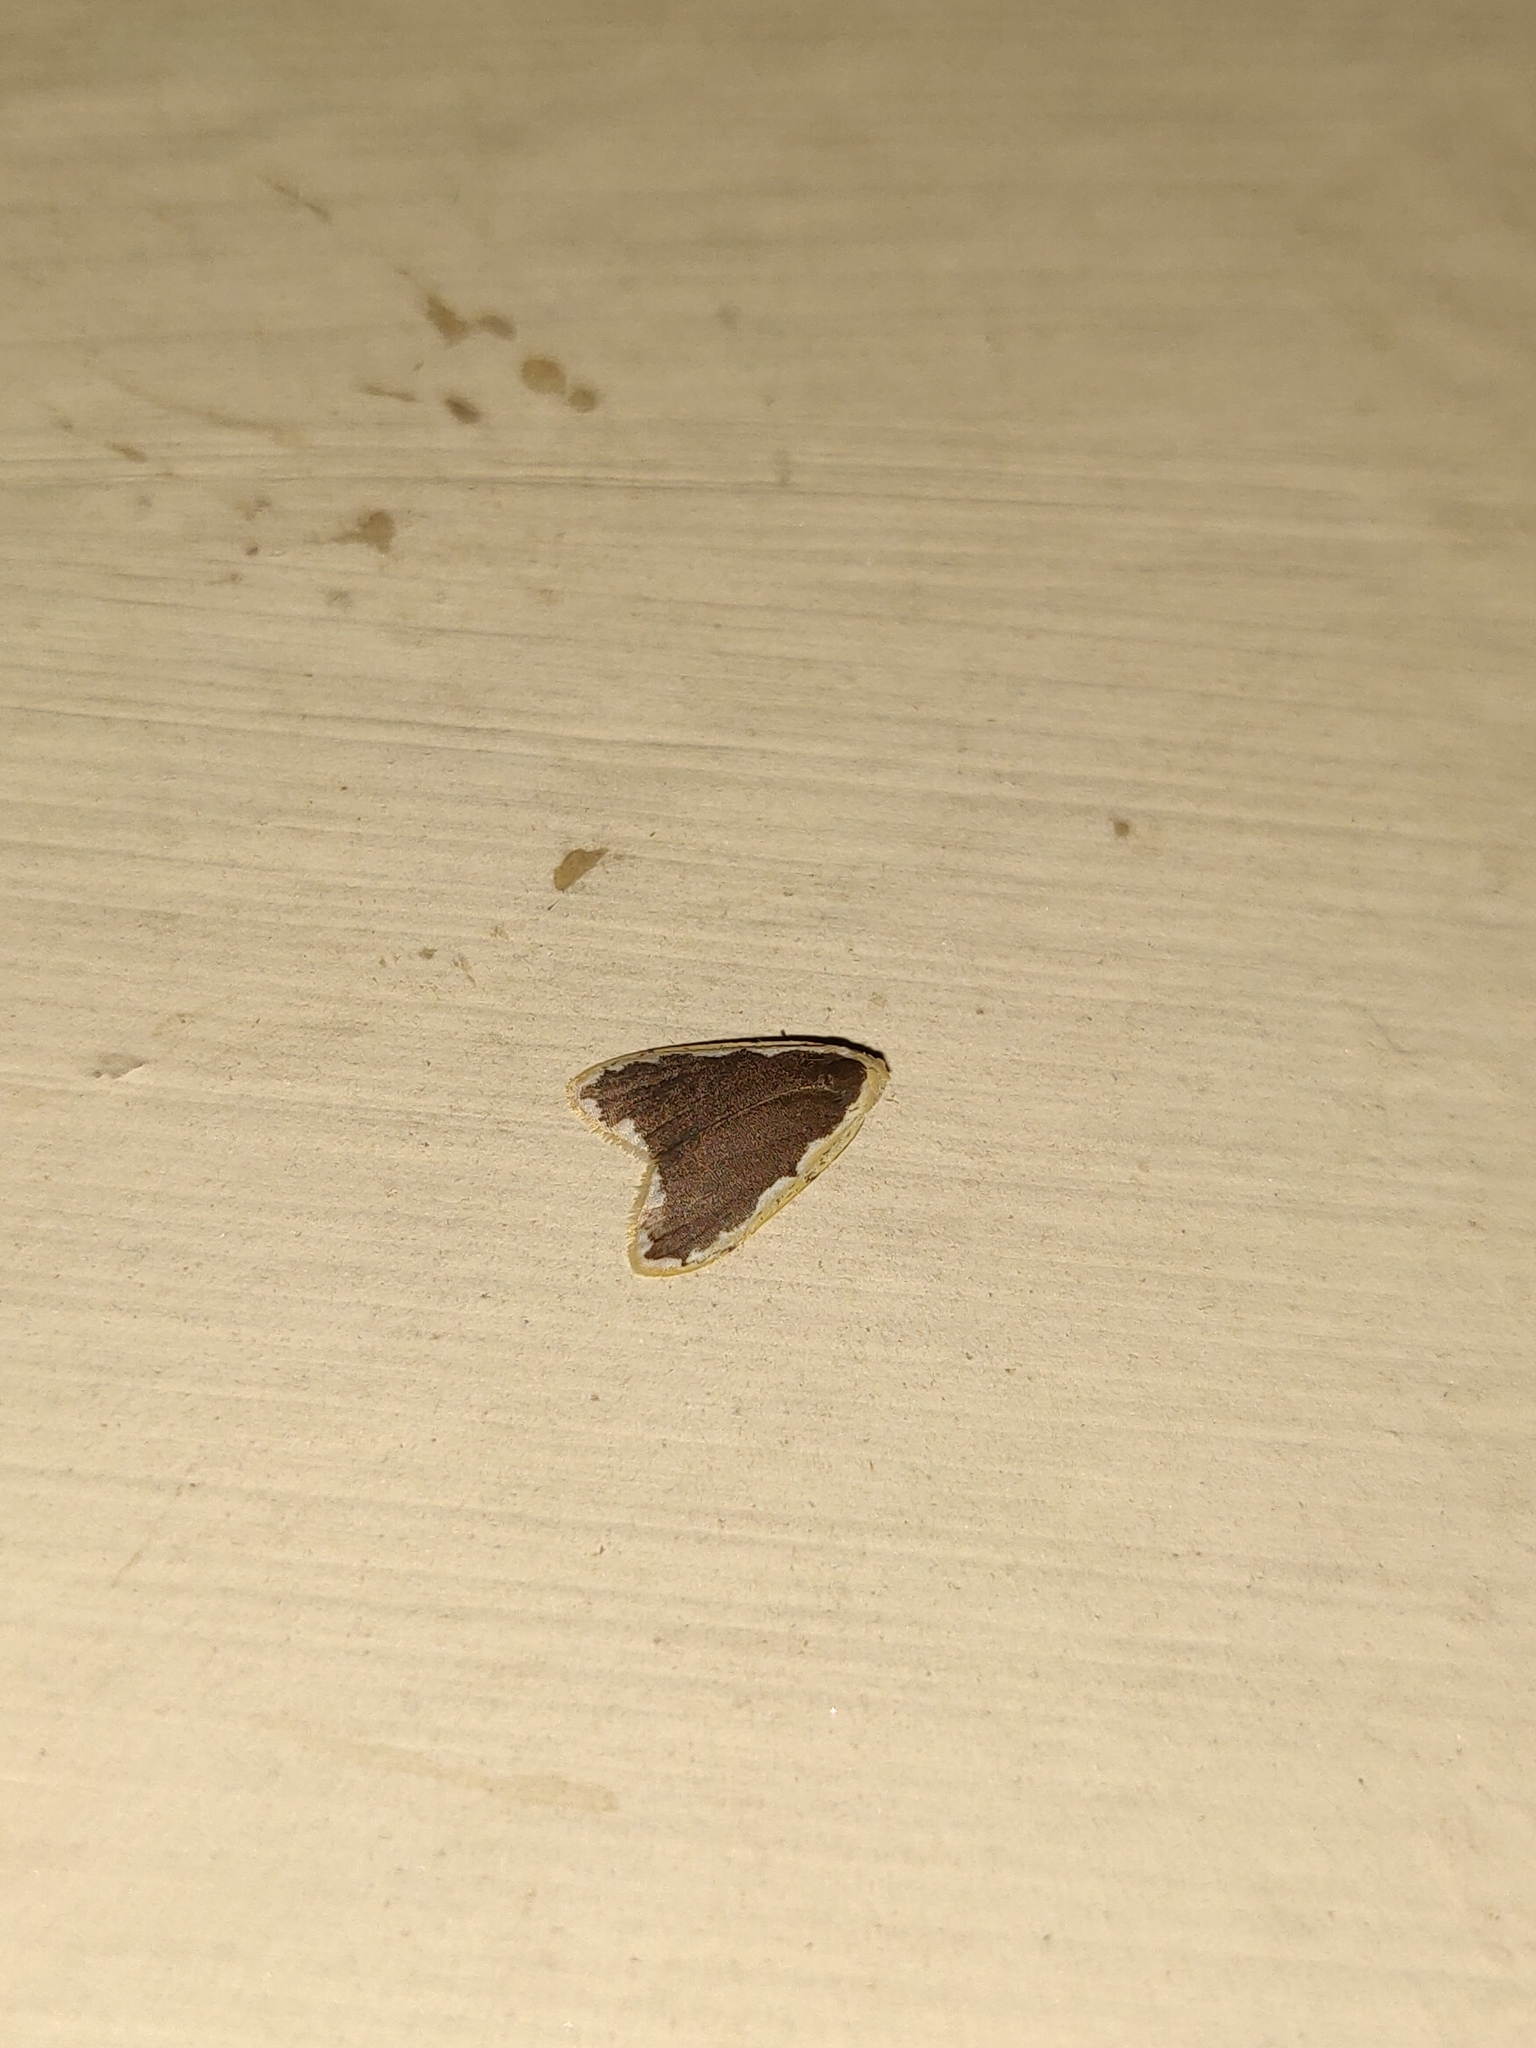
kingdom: Animalia
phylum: Arthropoda
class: Insecta
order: Lepidoptera
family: Erebidae
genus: Diduga
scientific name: Diduga flavicostata
